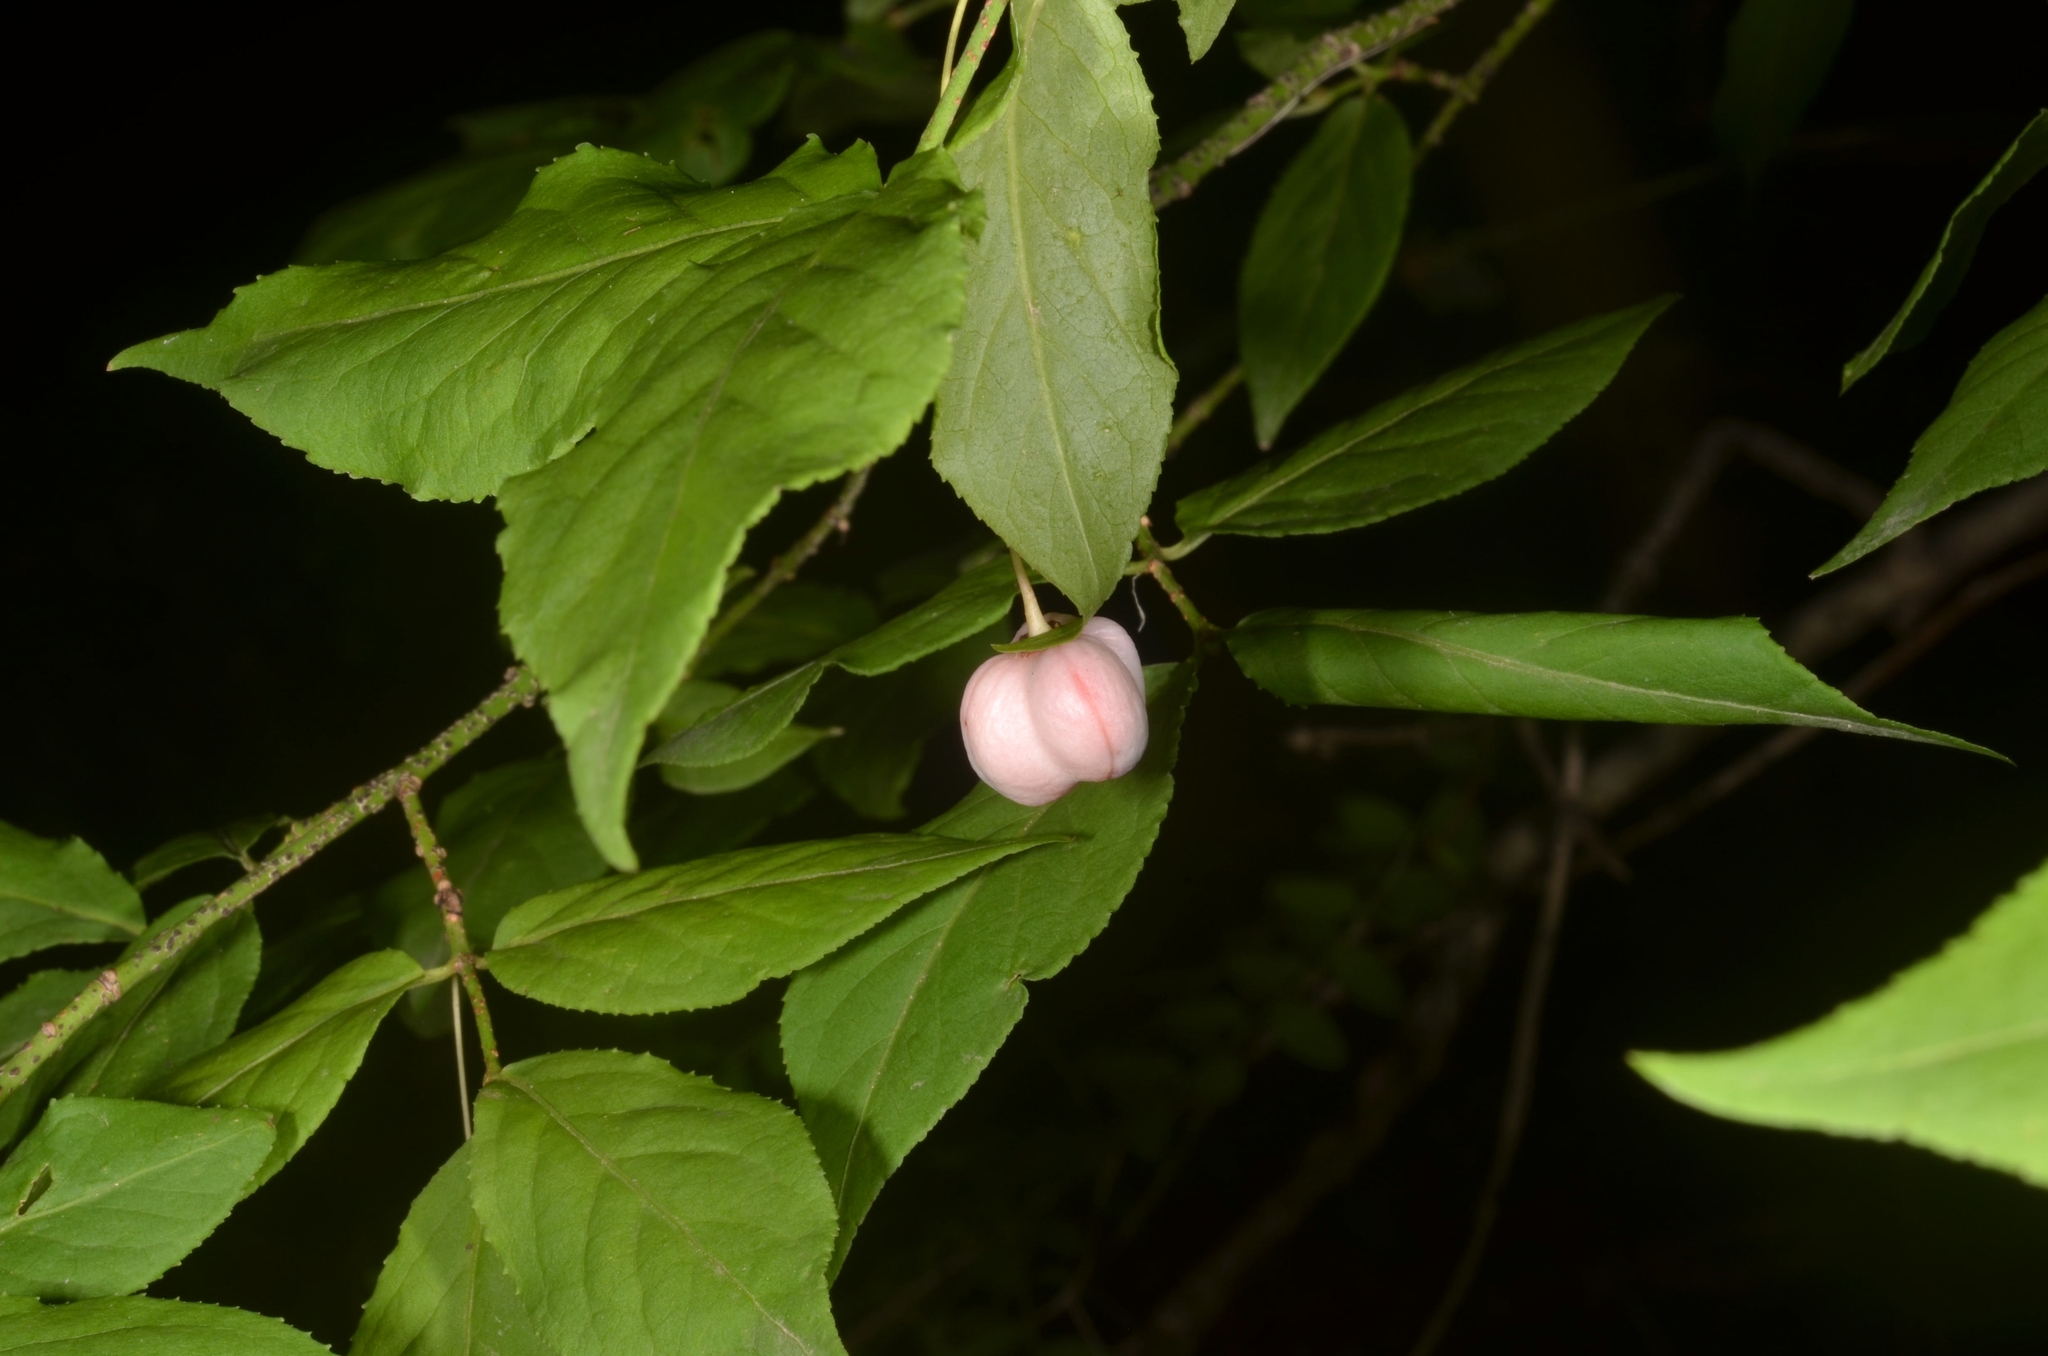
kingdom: Plantae
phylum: Tracheophyta
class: Magnoliopsida
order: Celastrales
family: Celastraceae
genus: Euonymus
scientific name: Euonymus verrucosus
